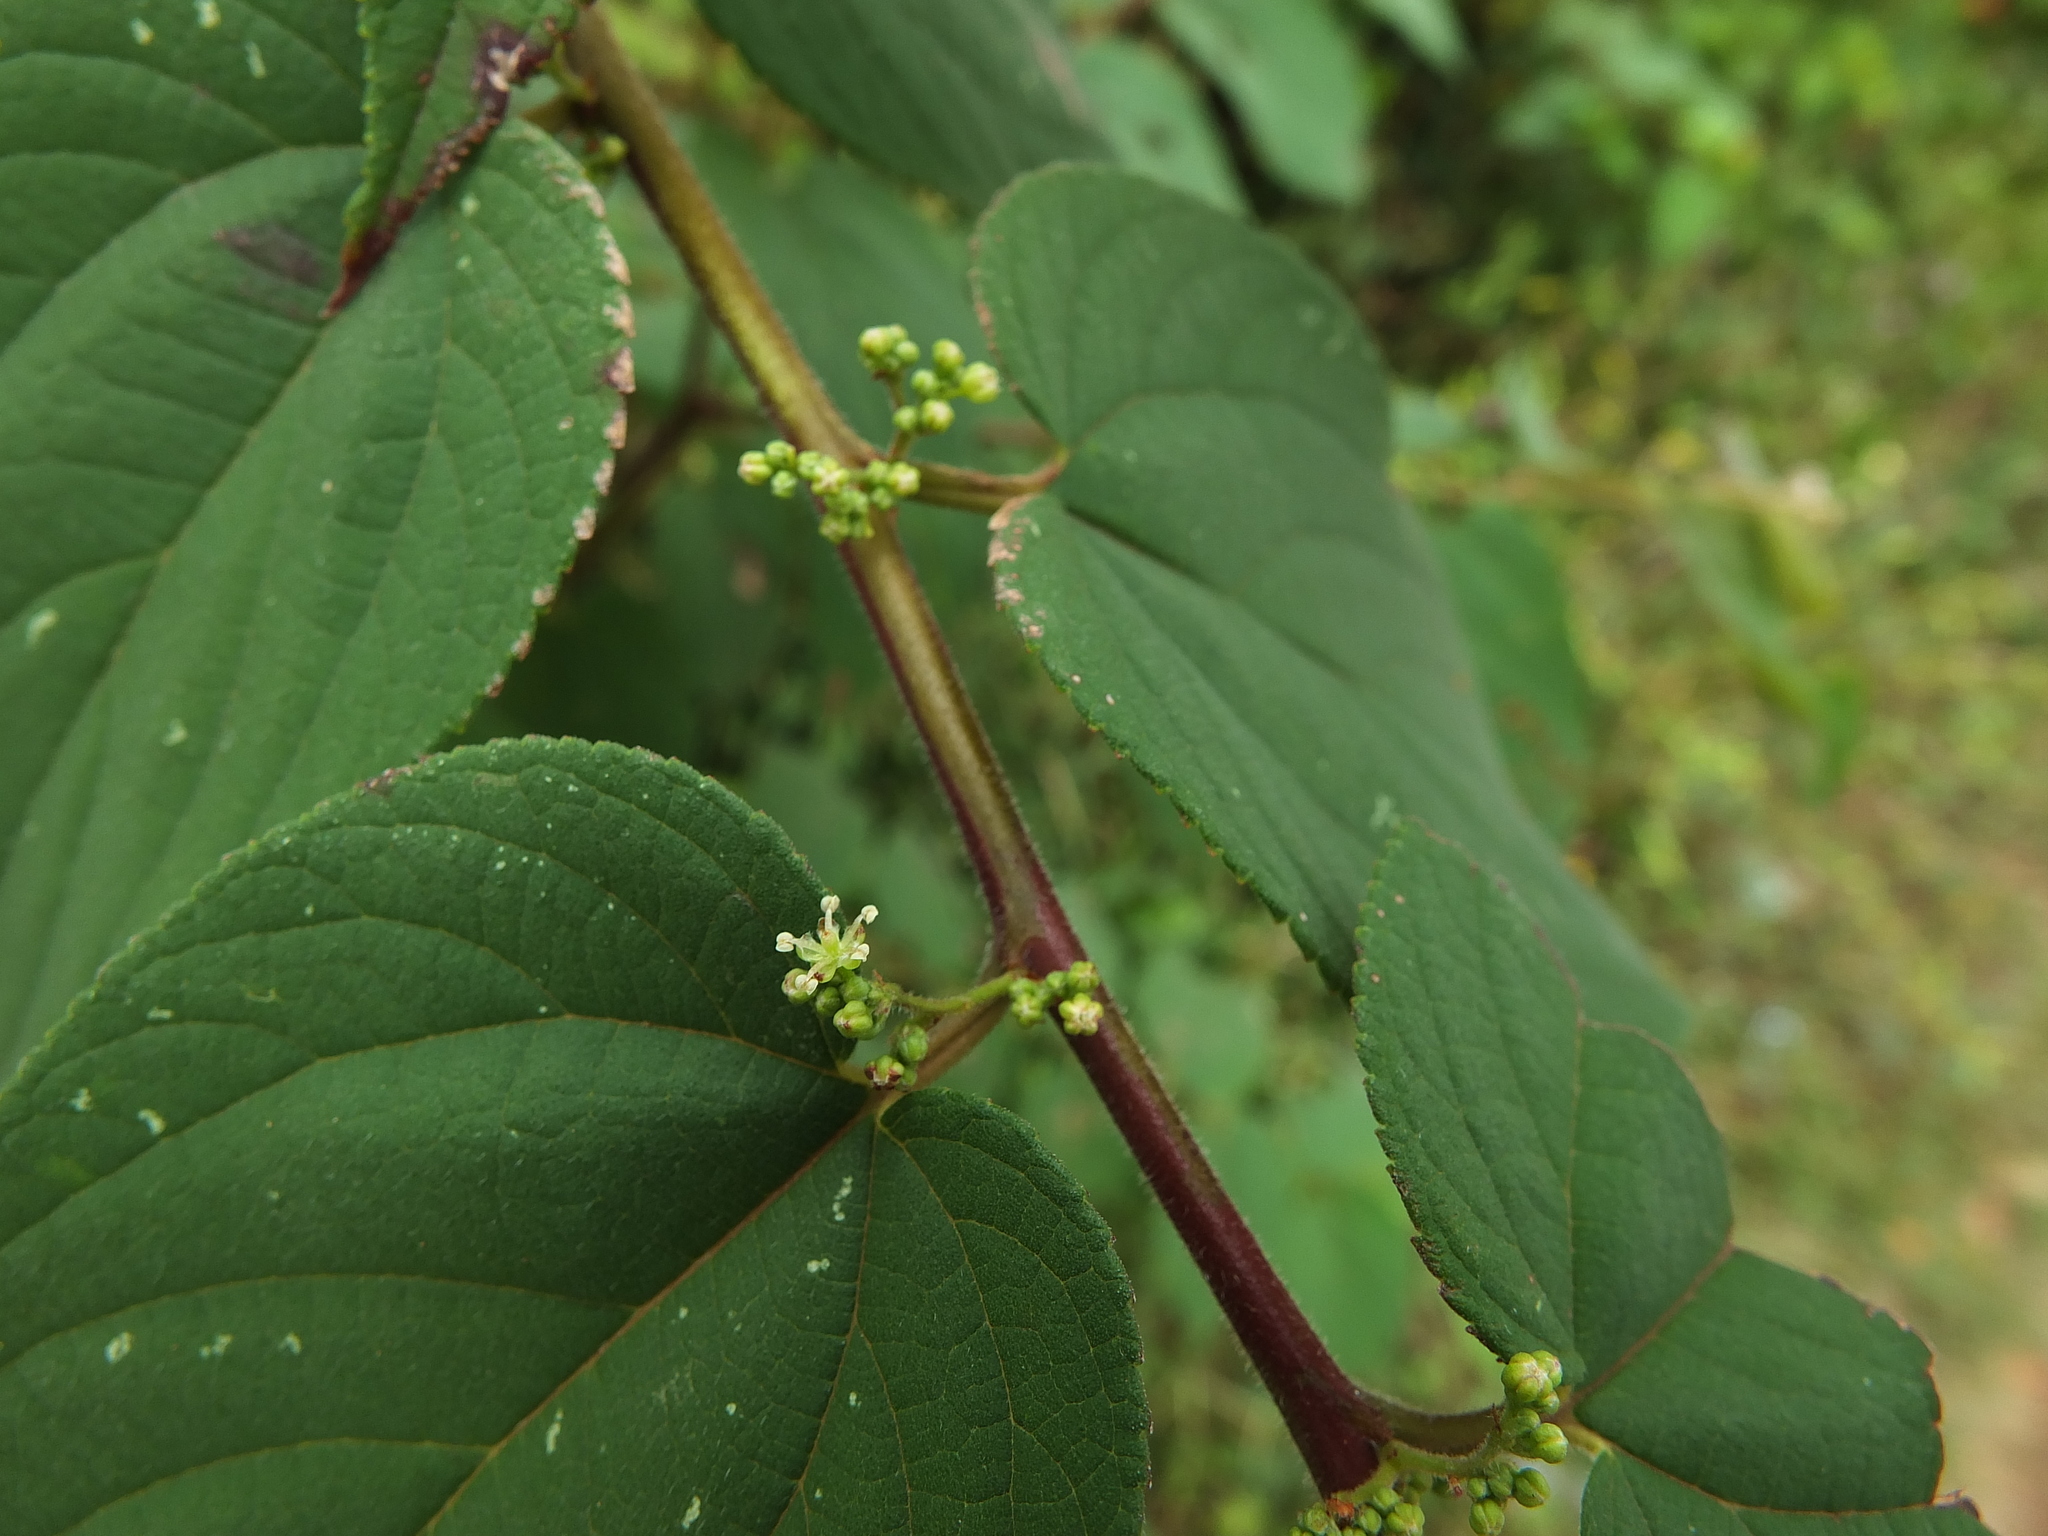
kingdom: Plantae
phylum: Tracheophyta
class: Magnoliopsida
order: Rosales
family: Cannabaceae
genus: Trema
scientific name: Trema orientale
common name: Indian charcoal tree
